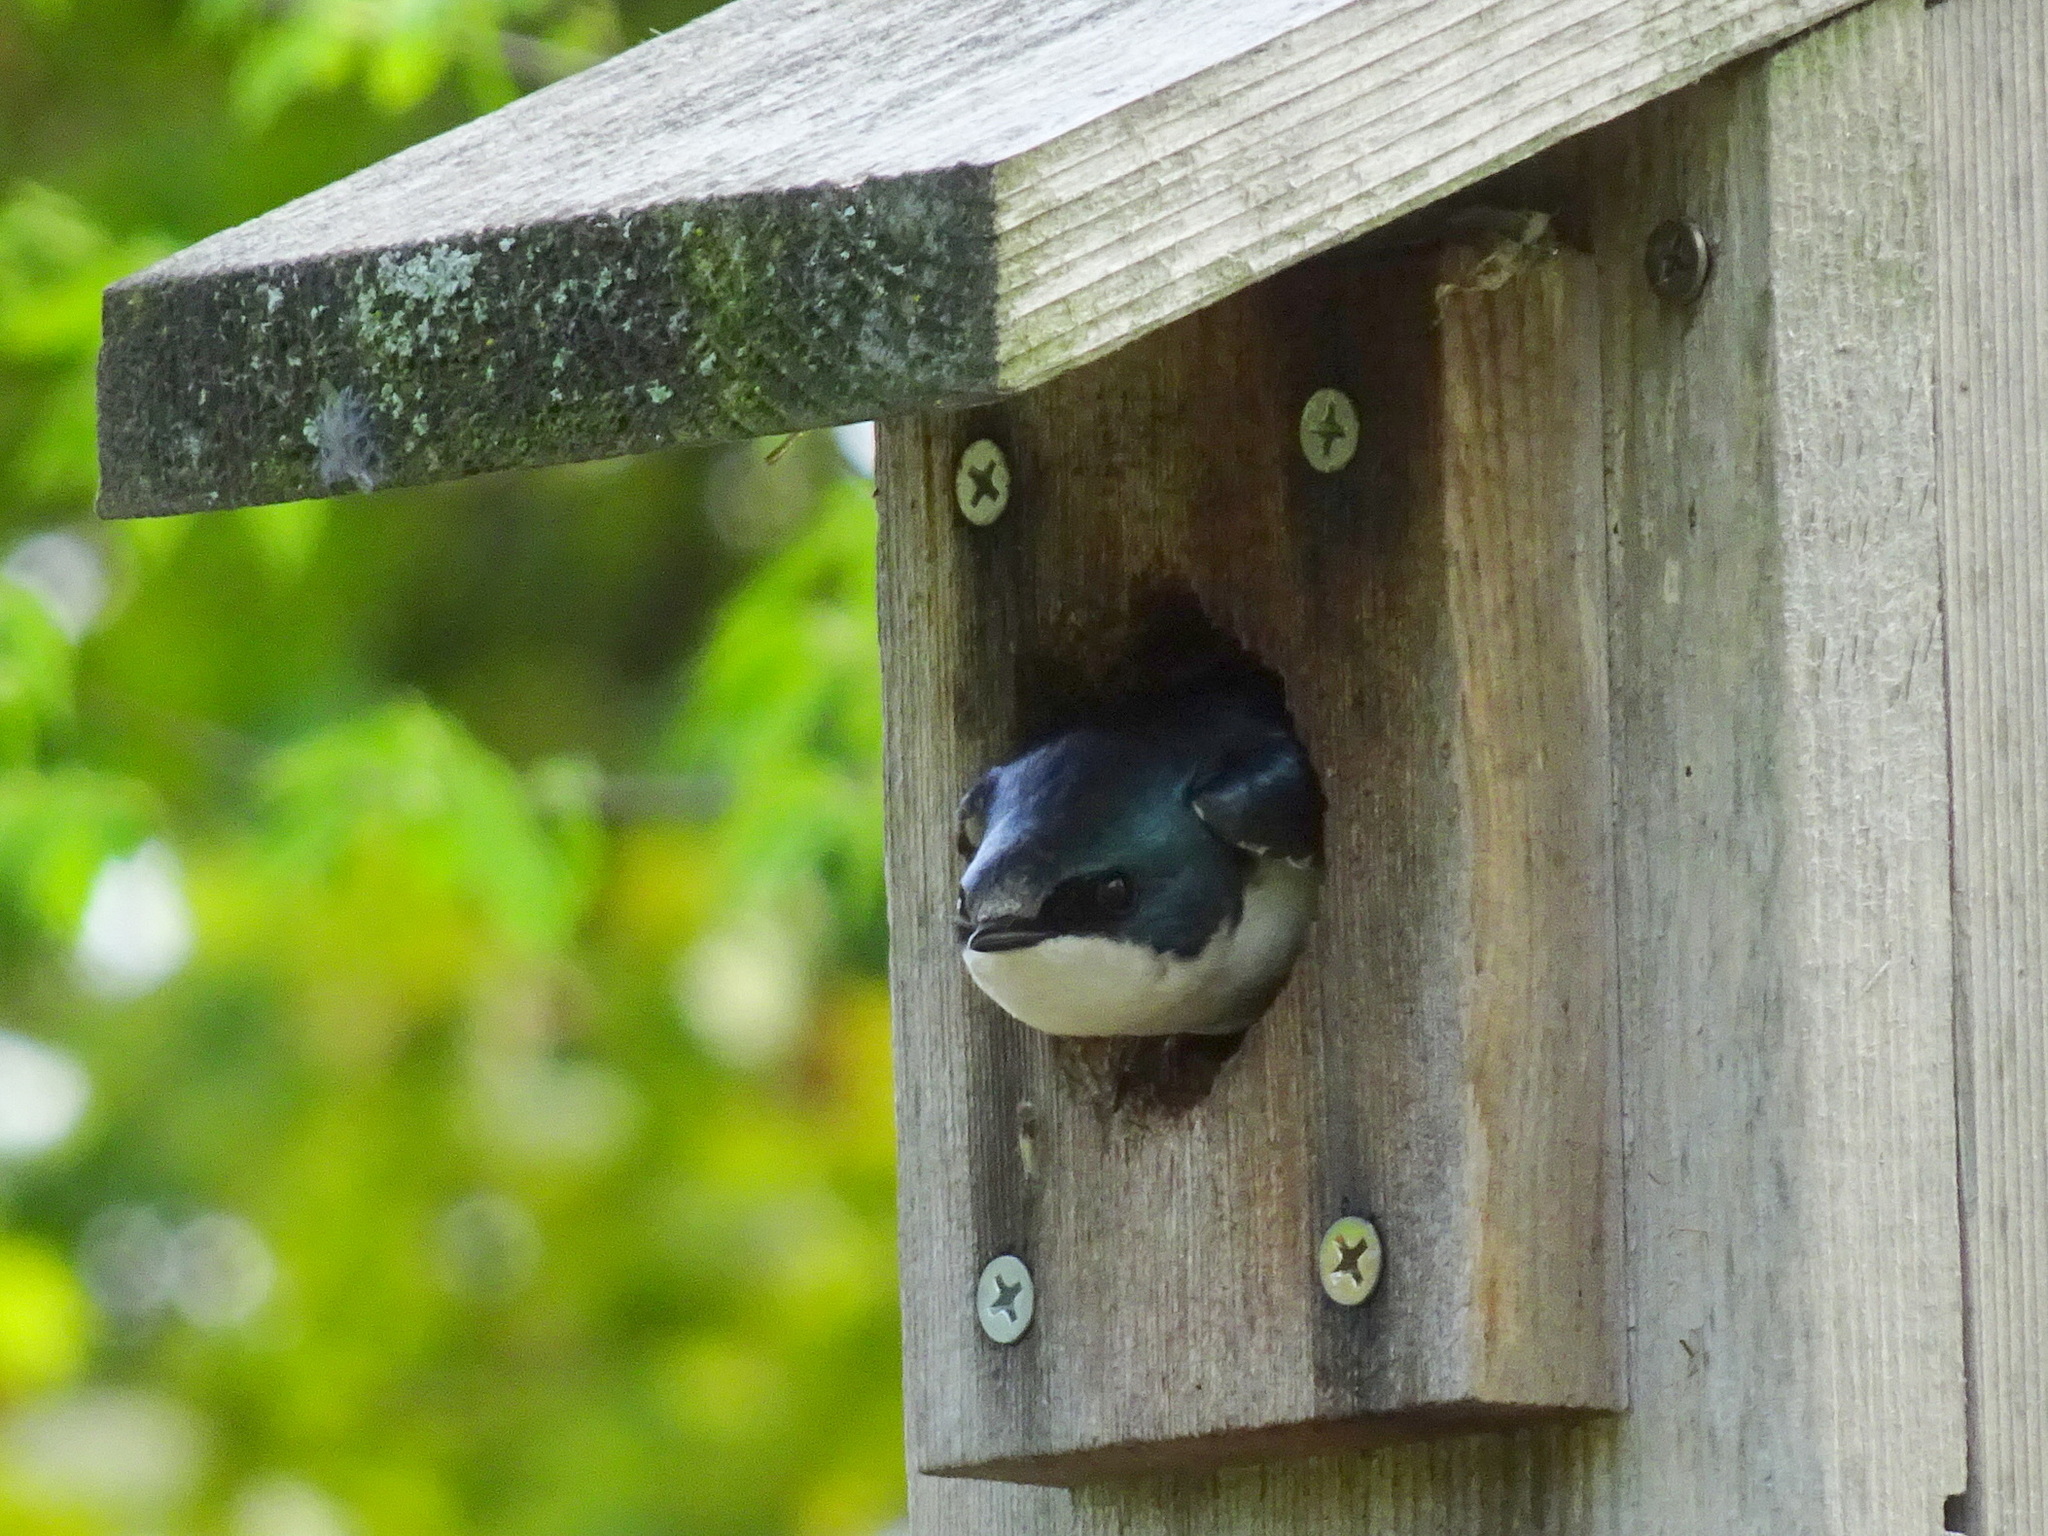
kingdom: Animalia
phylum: Chordata
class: Aves
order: Passeriformes
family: Hirundinidae
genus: Tachycineta
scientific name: Tachycineta bicolor
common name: Tree swallow
